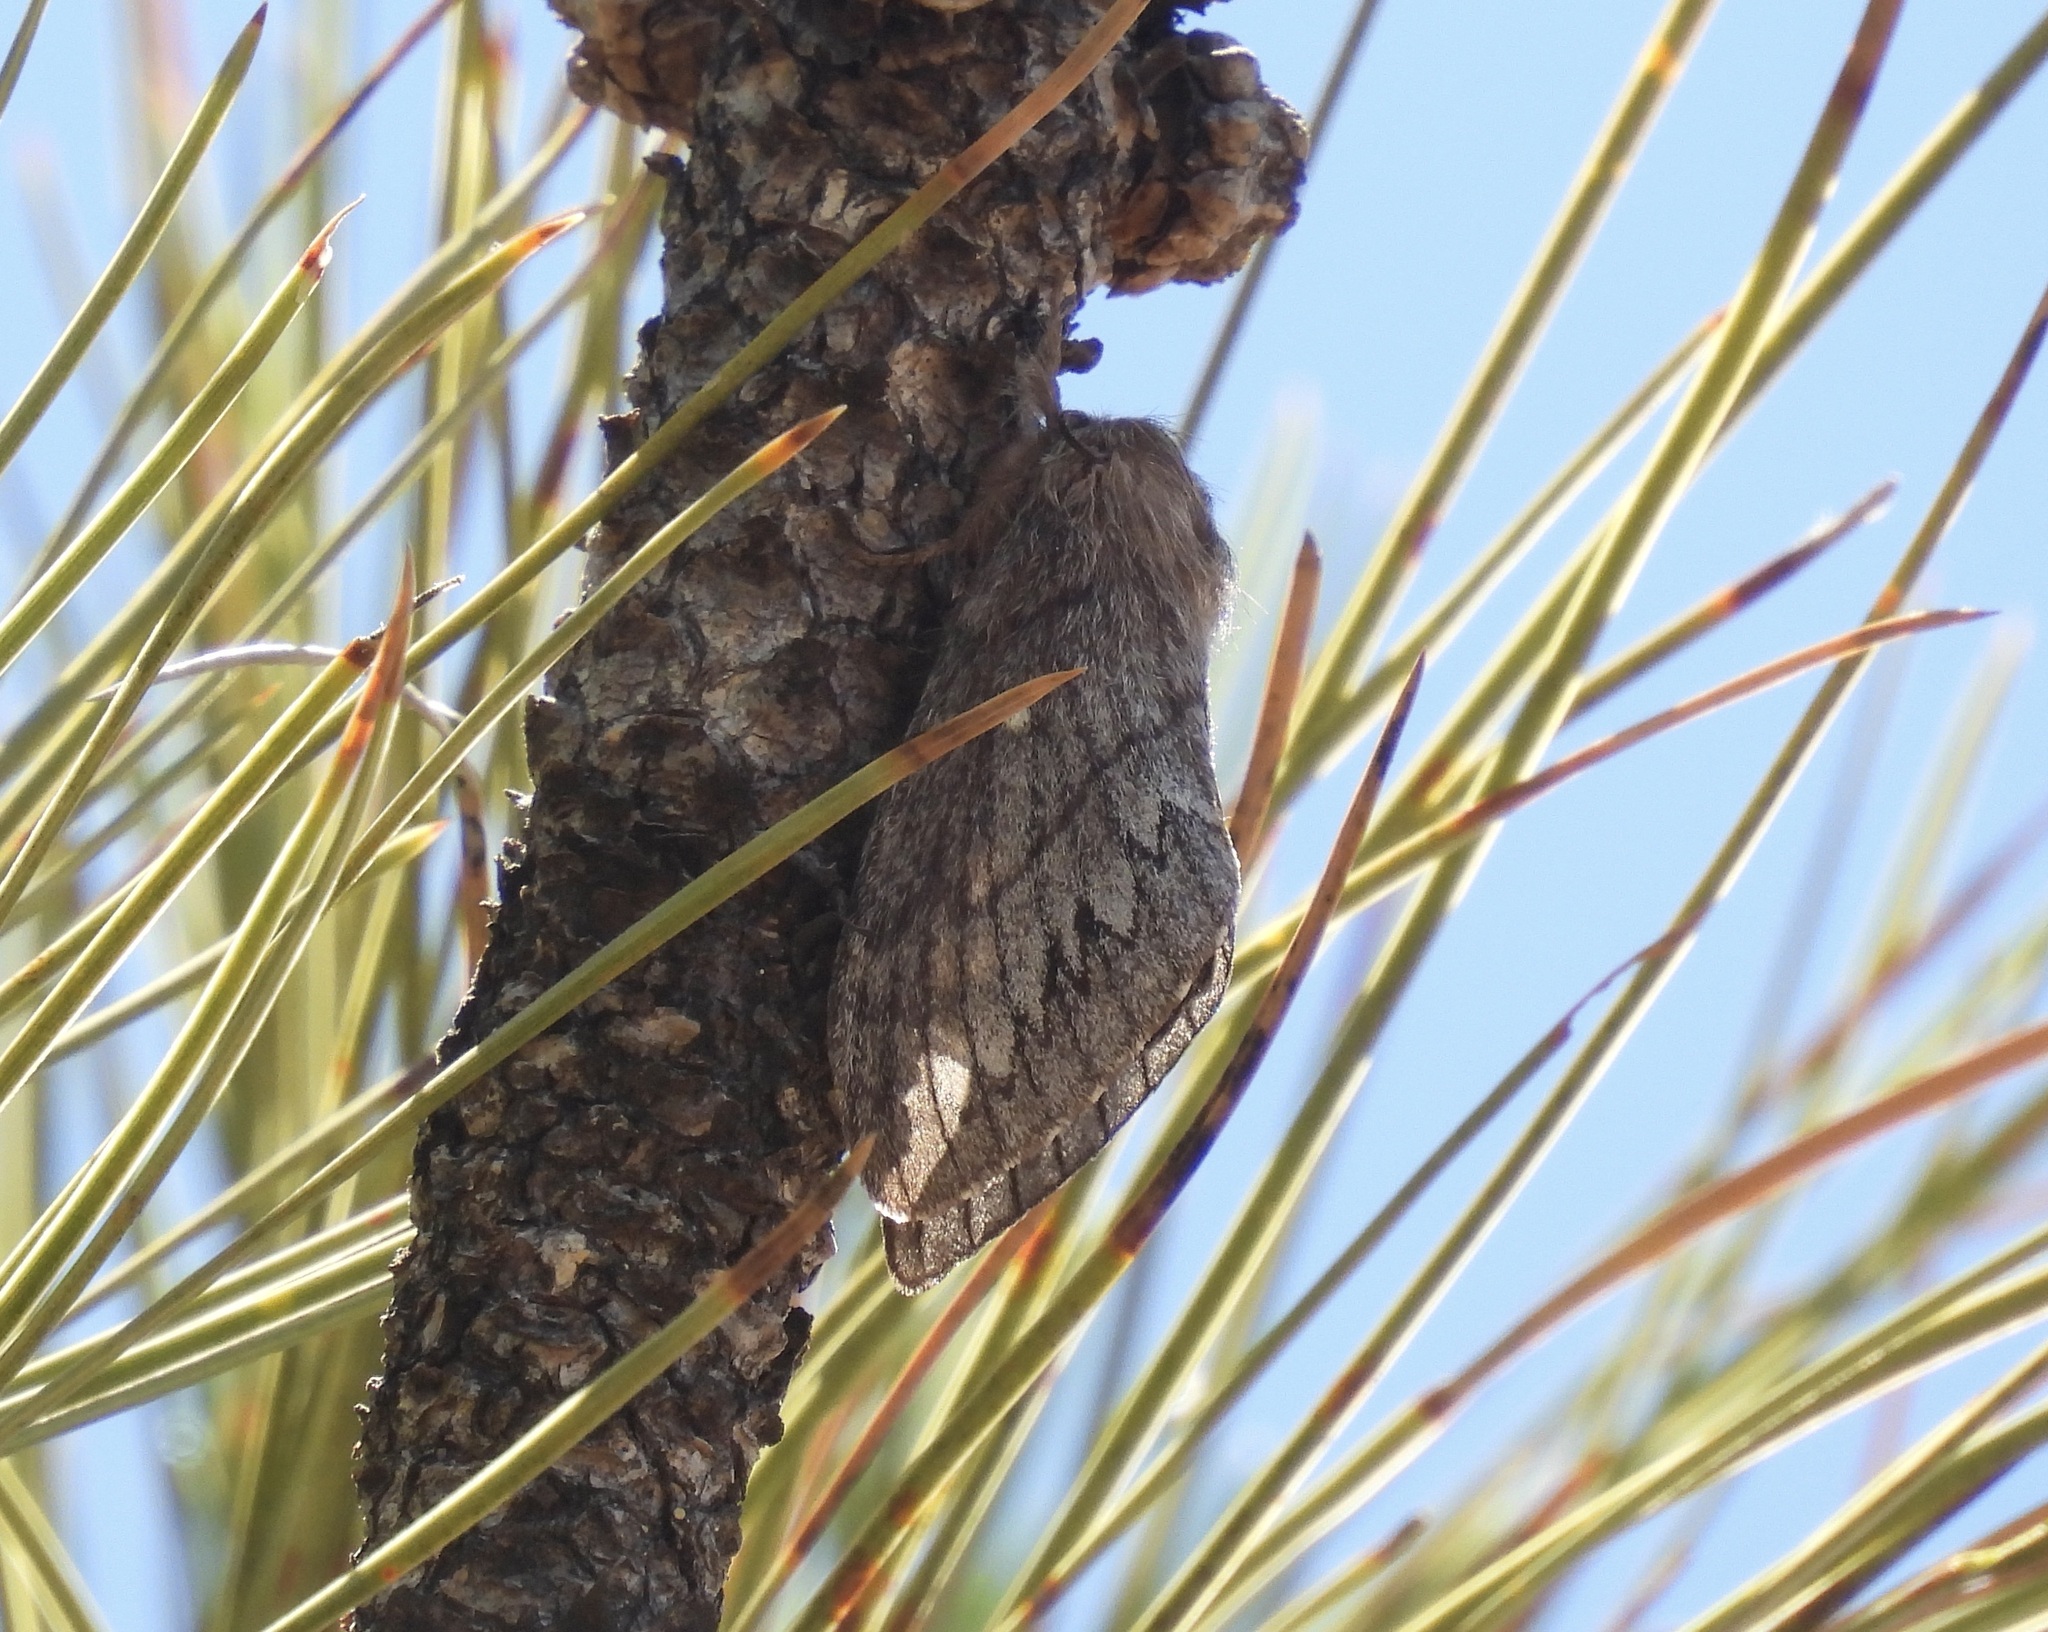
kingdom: Animalia
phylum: Arthropoda
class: Insecta
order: Lepidoptera
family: Lasiocampidae
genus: Gloveria
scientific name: Gloveria arizonensis
